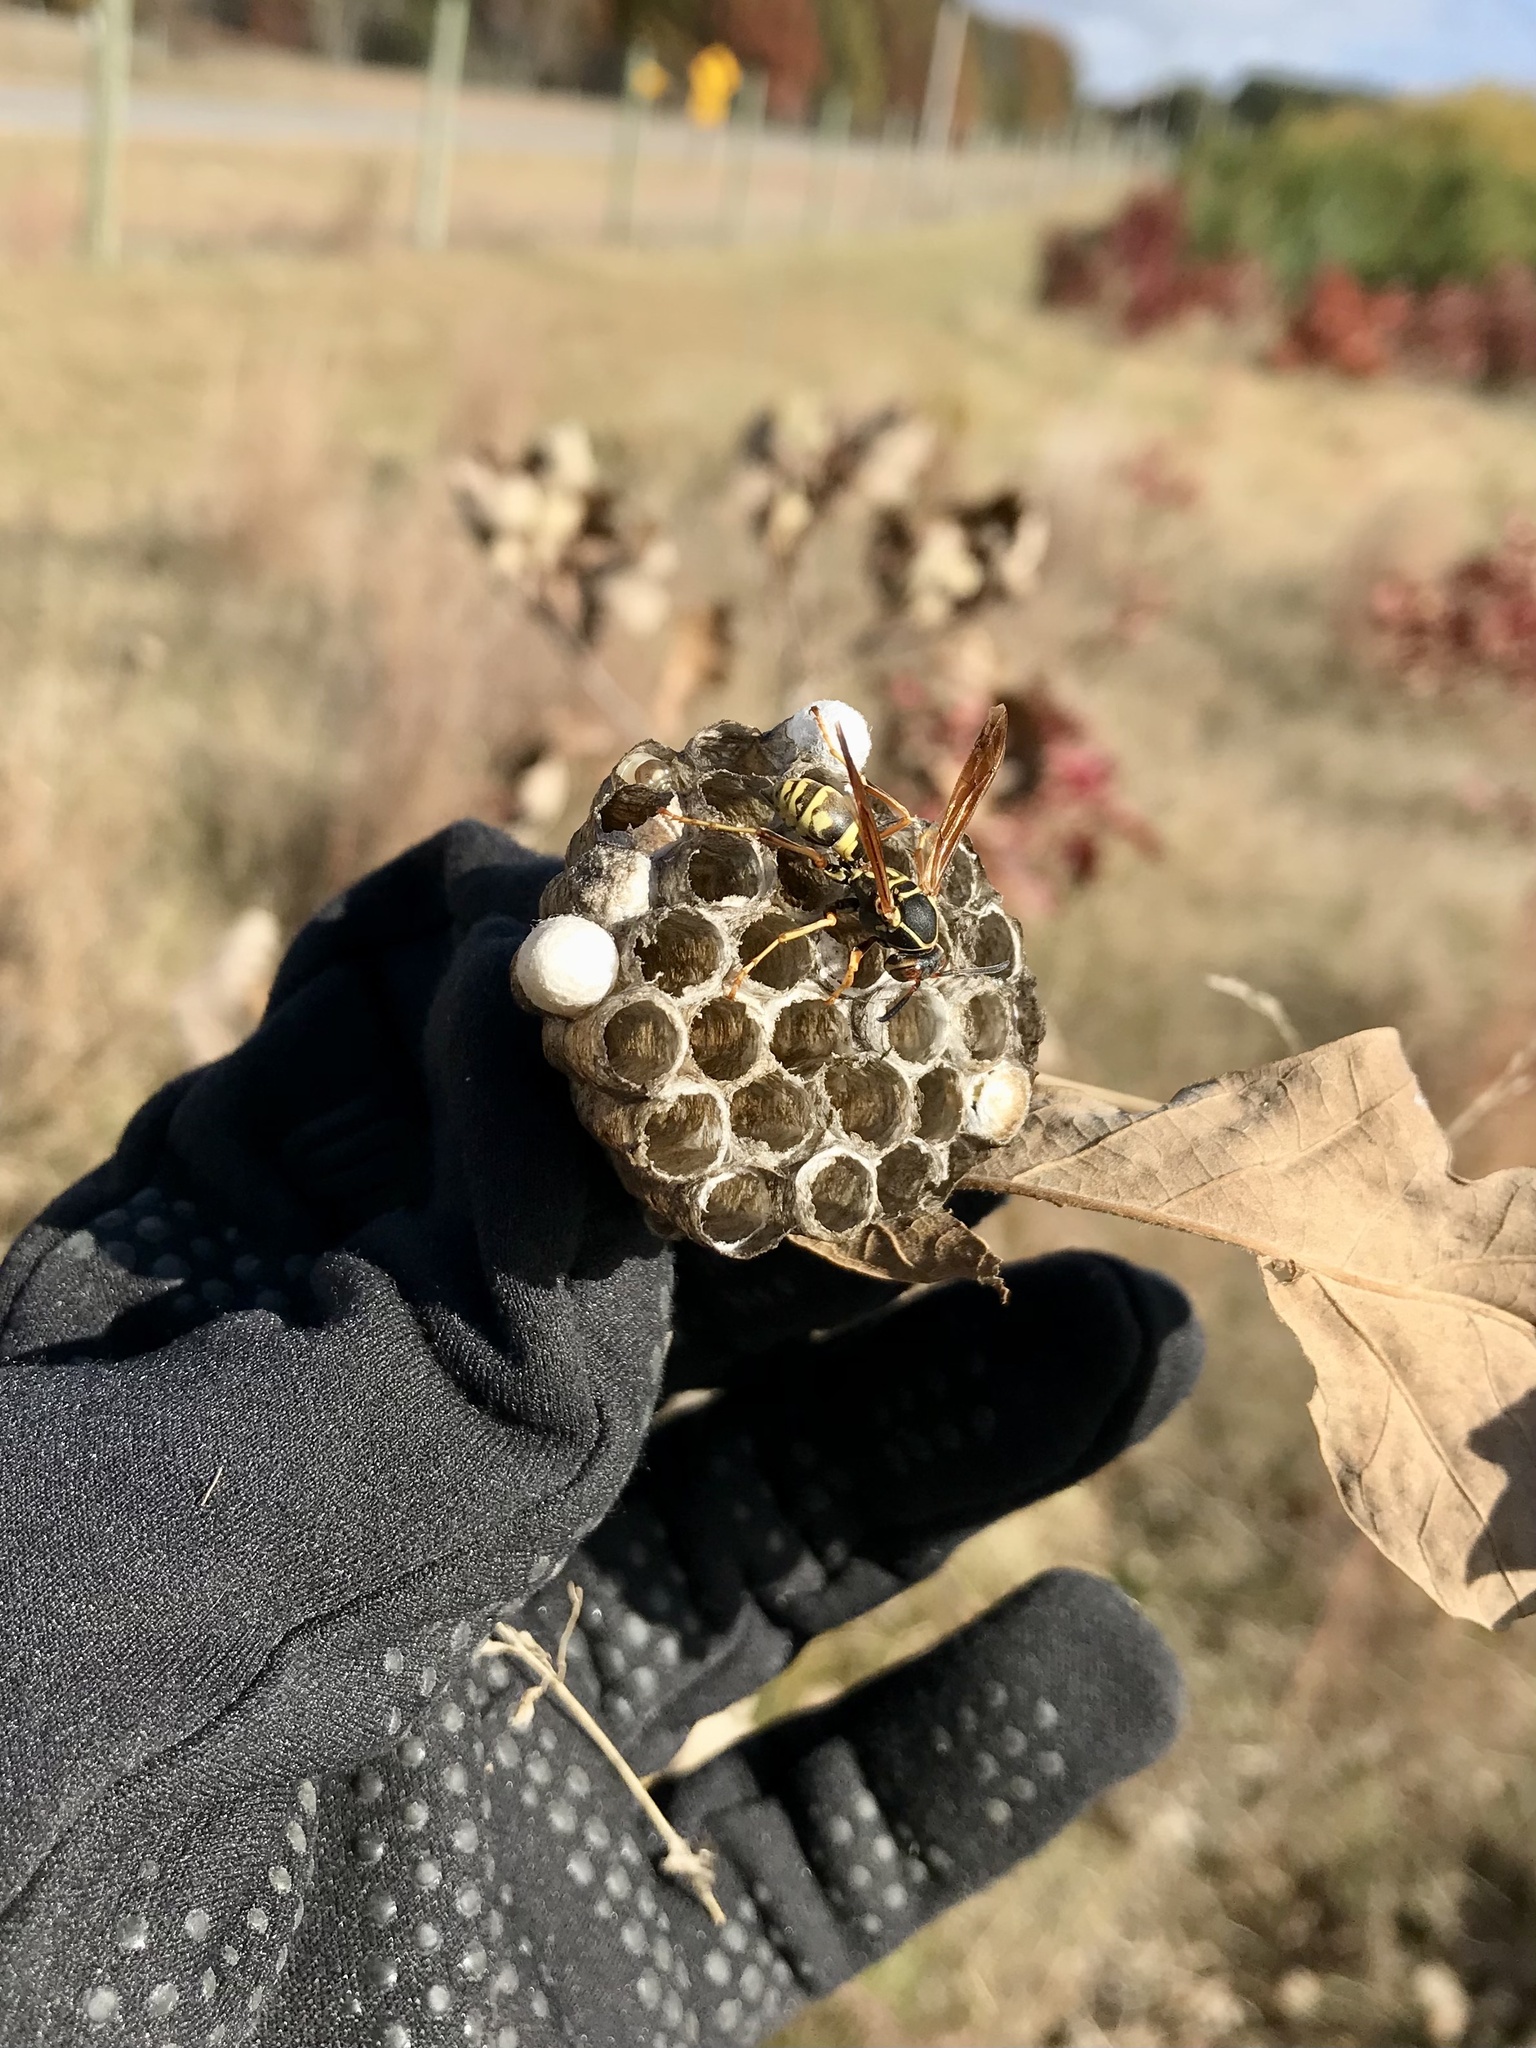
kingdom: Animalia
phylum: Arthropoda
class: Insecta
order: Hymenoptera
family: Eumenidae
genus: Polistes
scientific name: Polistes fuscatus
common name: Dark paper wasp
